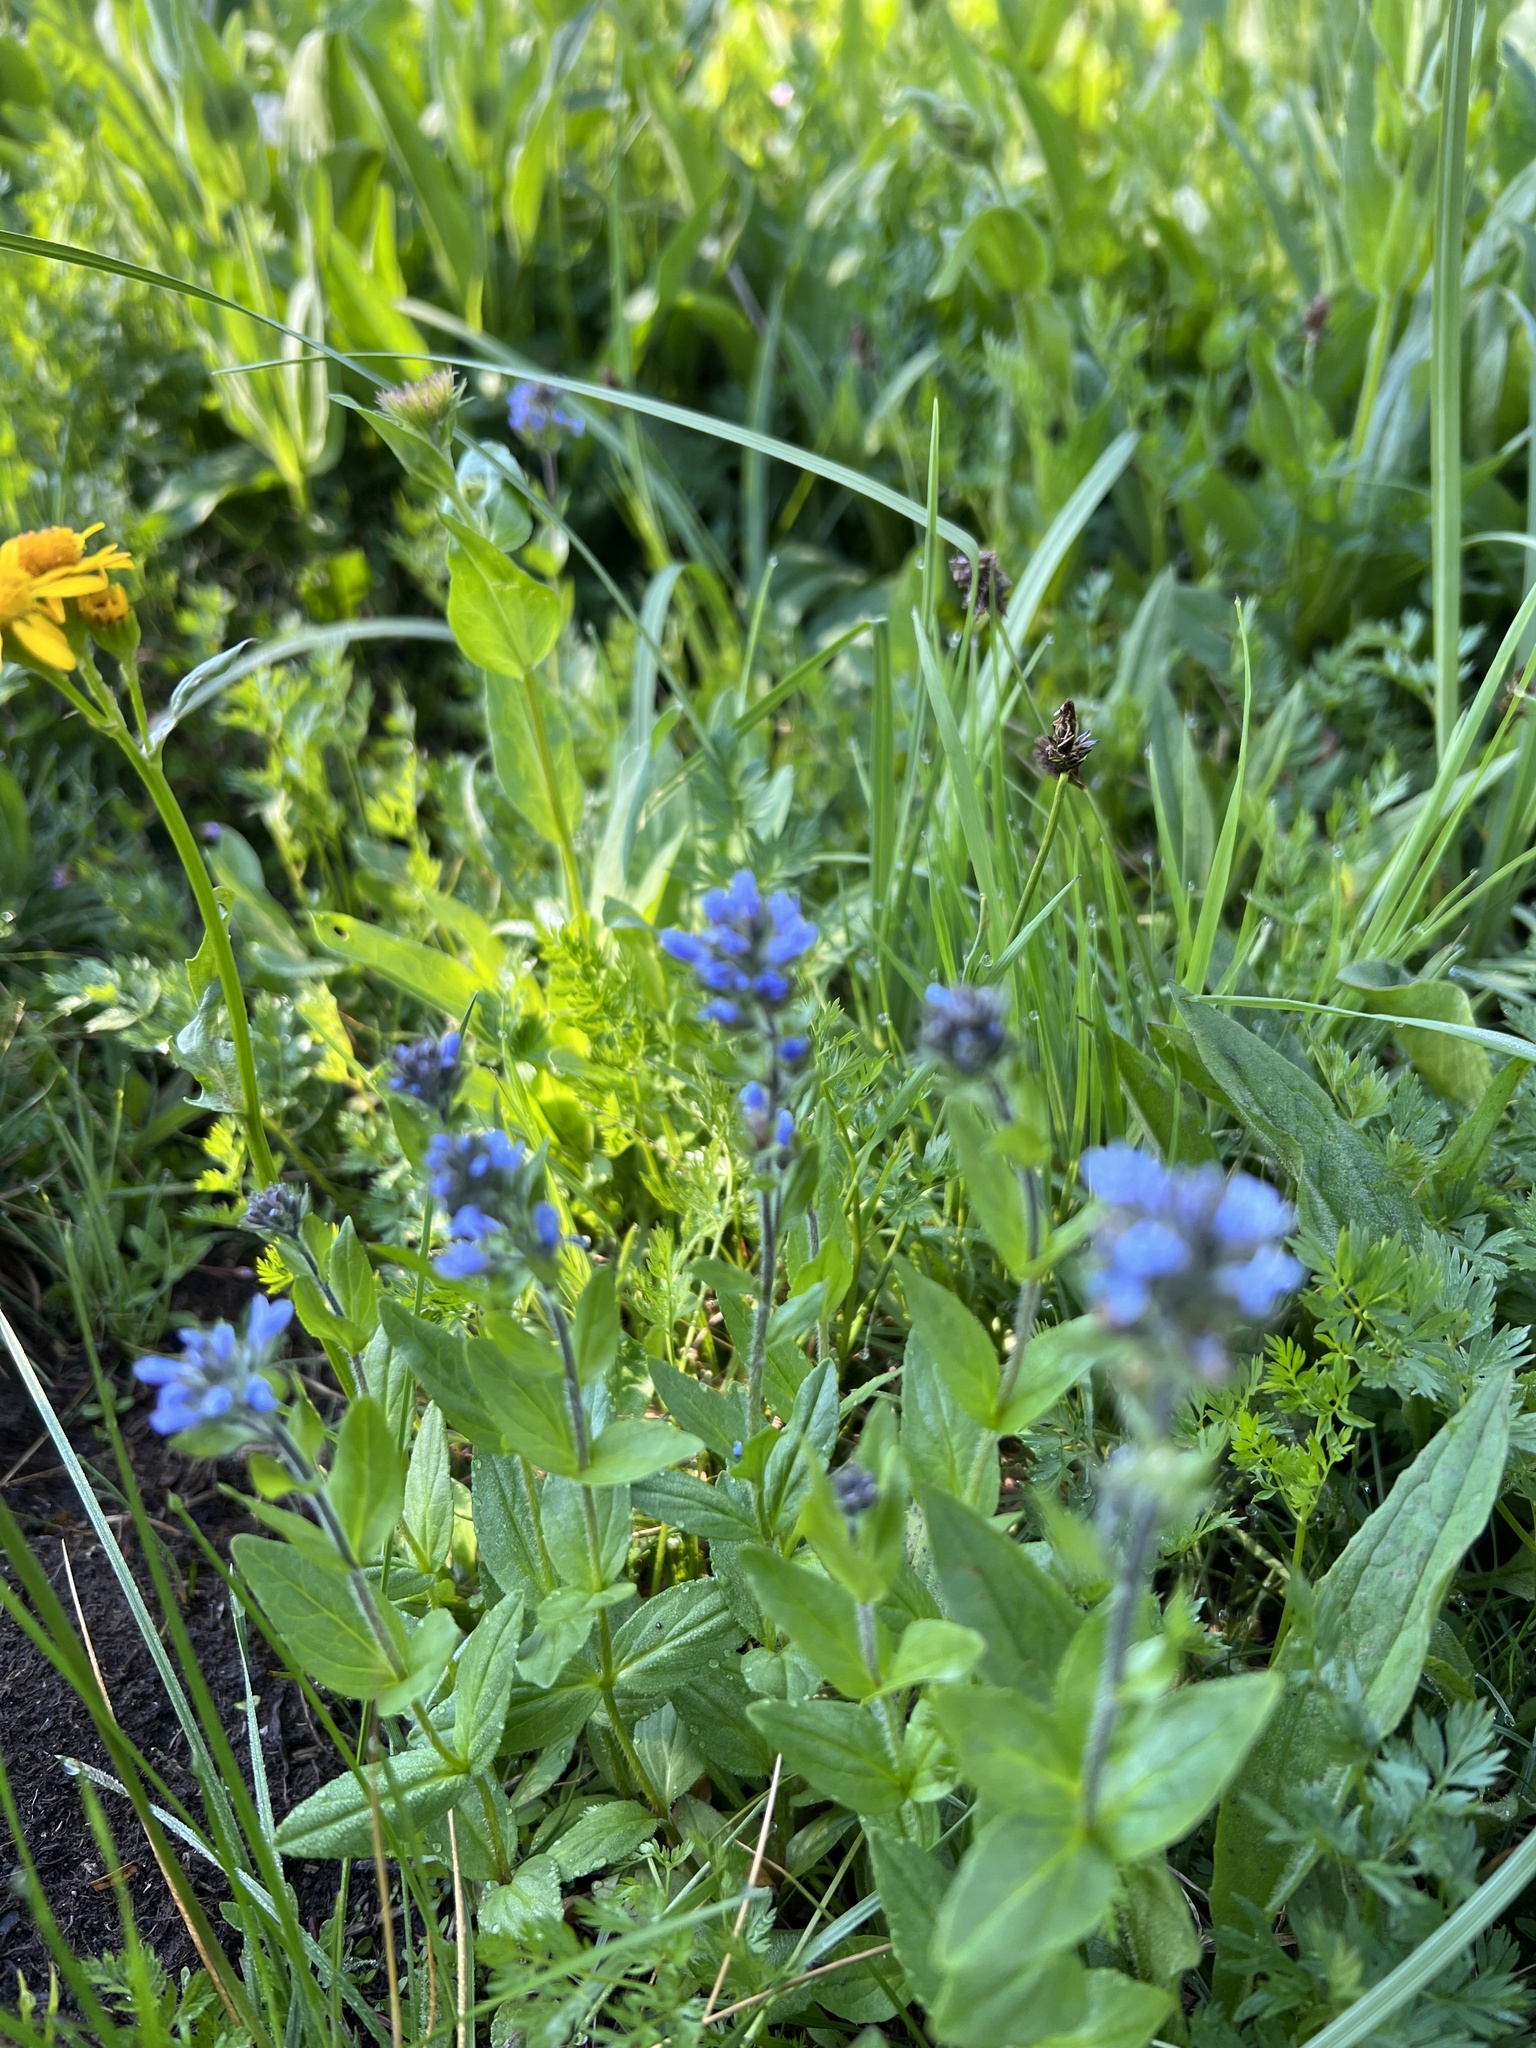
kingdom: Plantae
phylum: Tracheophyta
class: Magnoliopsida
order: Lamiales
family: Plantaginaceae
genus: Veronica
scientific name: Veronica wormskjoldii
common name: American alpine speedwell
